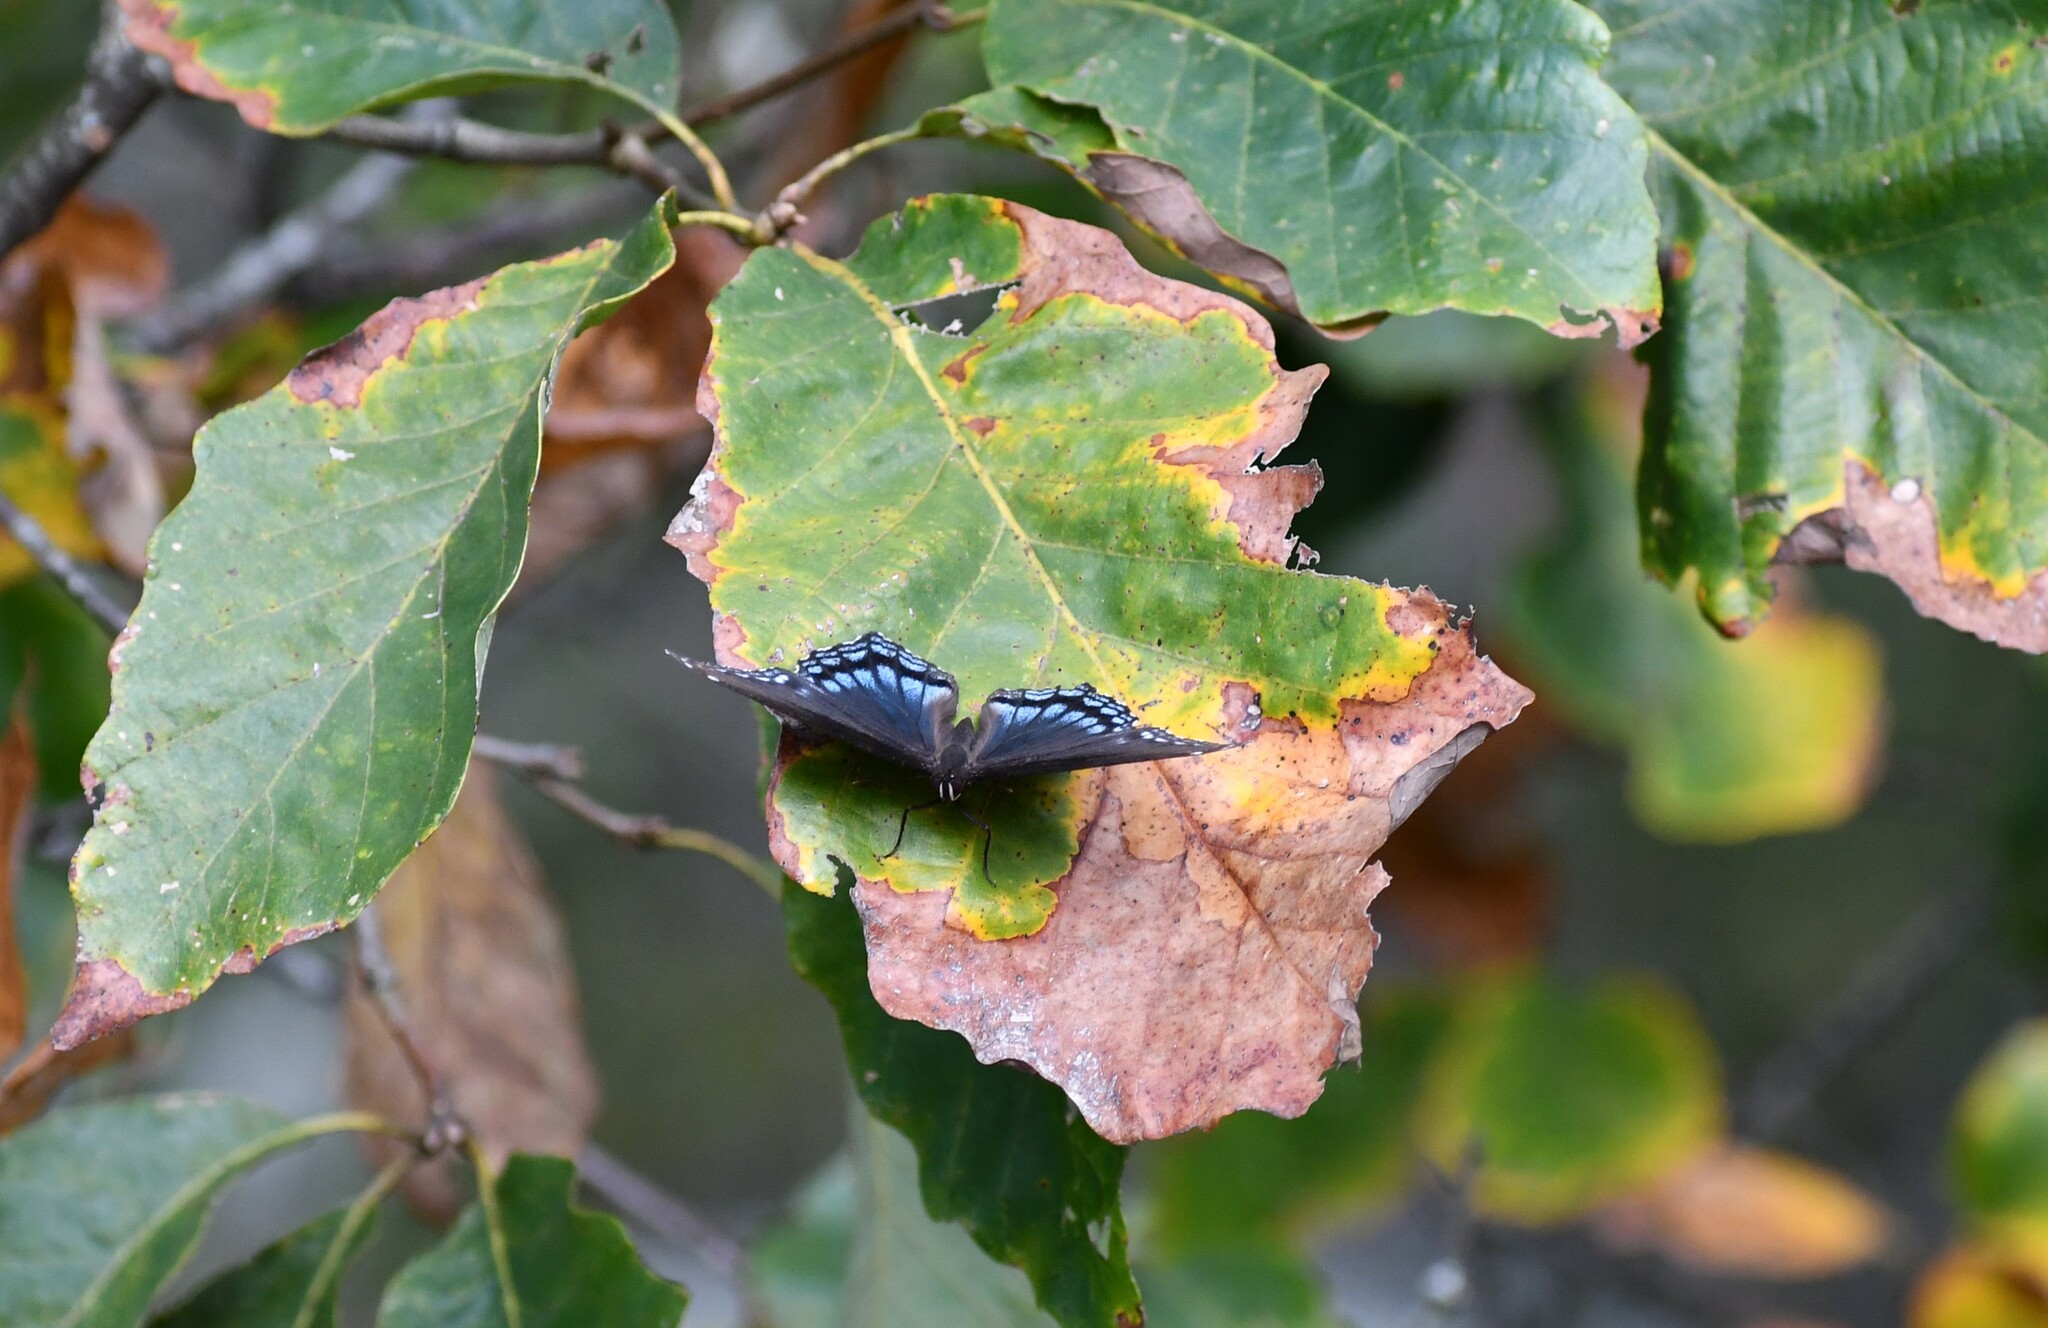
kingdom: Animalia
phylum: Arthropoda
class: Insecta
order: Lepidoptera
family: Nymphalidae
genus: Limenitis
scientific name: Limenitis astyanax
